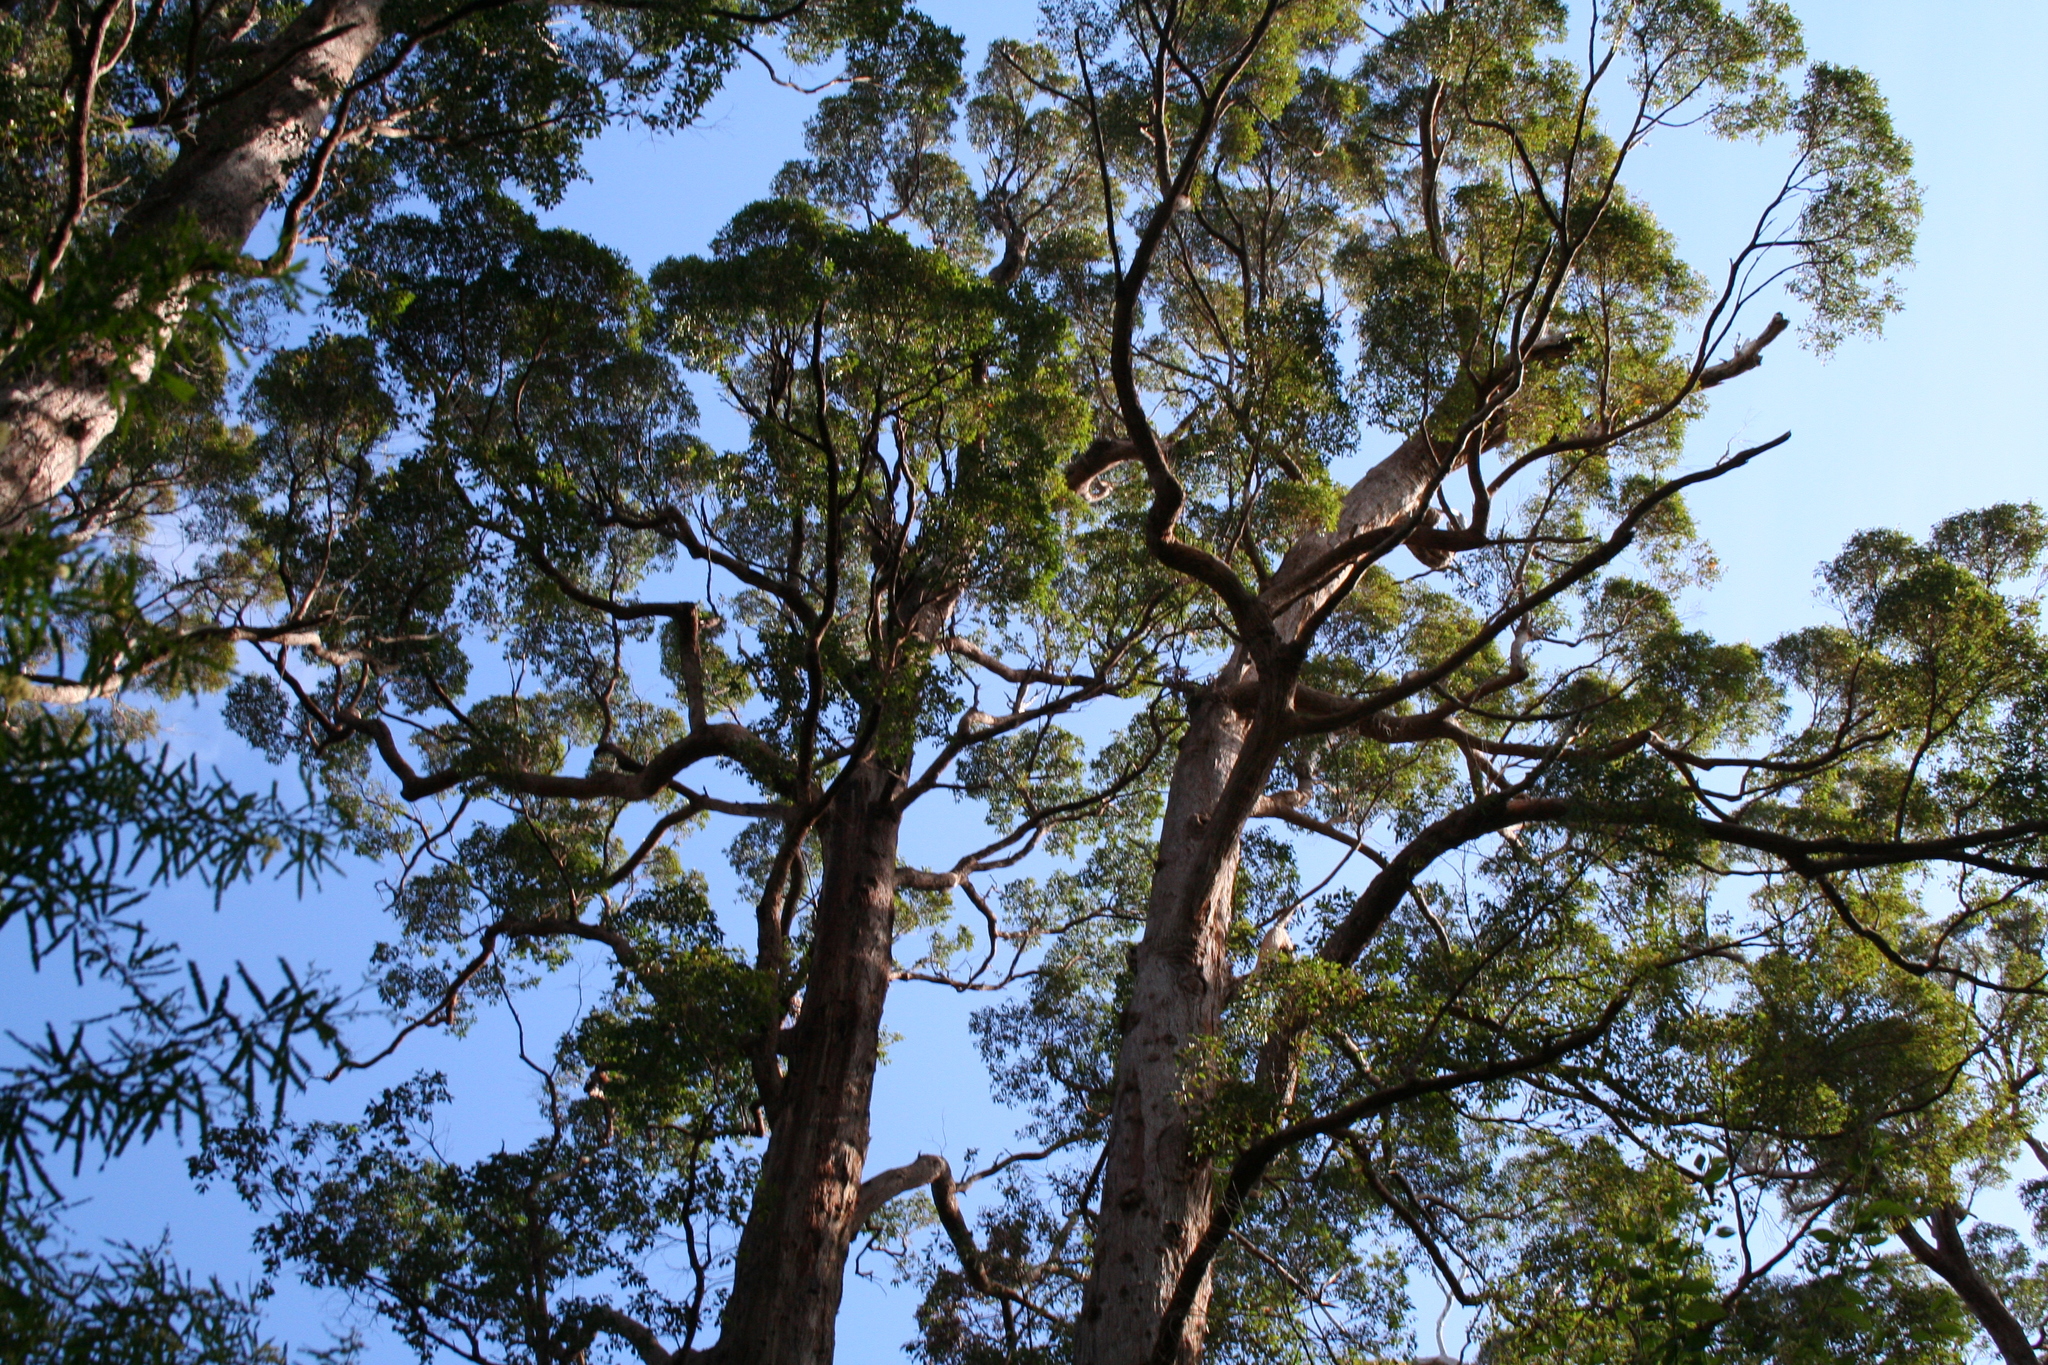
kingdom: Plantae
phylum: Tracheophyta
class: Magnoliopsida
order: Myrtales
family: Myrtaceae
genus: Eucalyptus
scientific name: Eucalyptus diversicolor
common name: Karri
